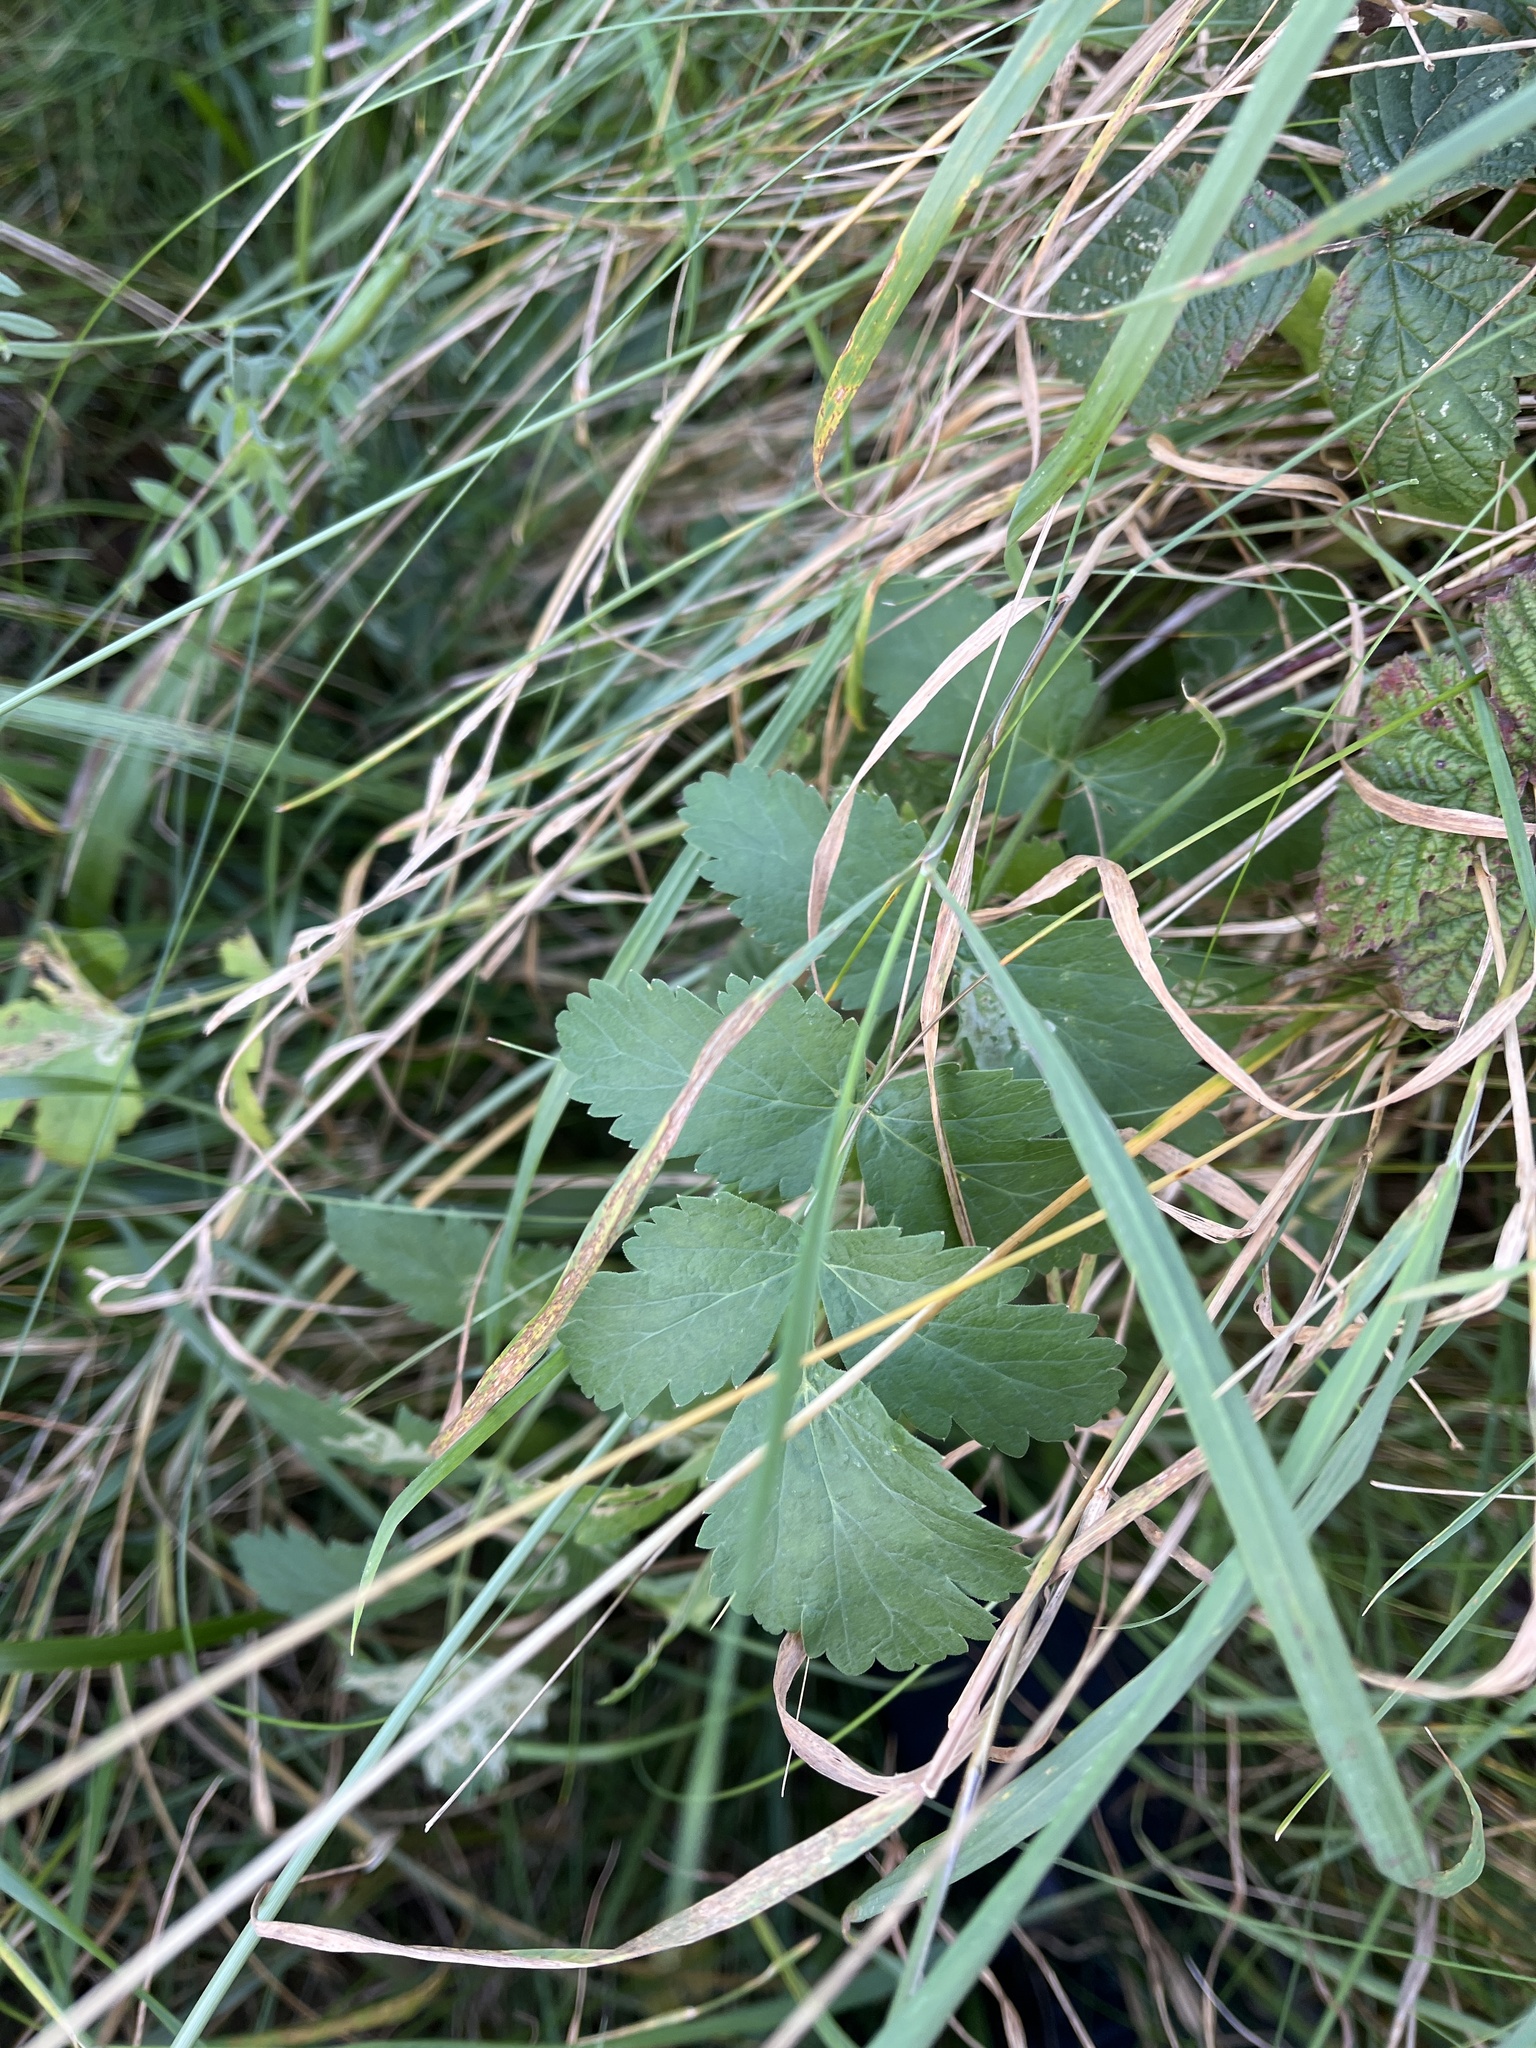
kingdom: Plantae
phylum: Tracheophyta
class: Magnoliopsida
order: Apiales
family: Apiaceae
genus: Pastinaca
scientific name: Pastinaca sativa
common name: Wild parsnip
